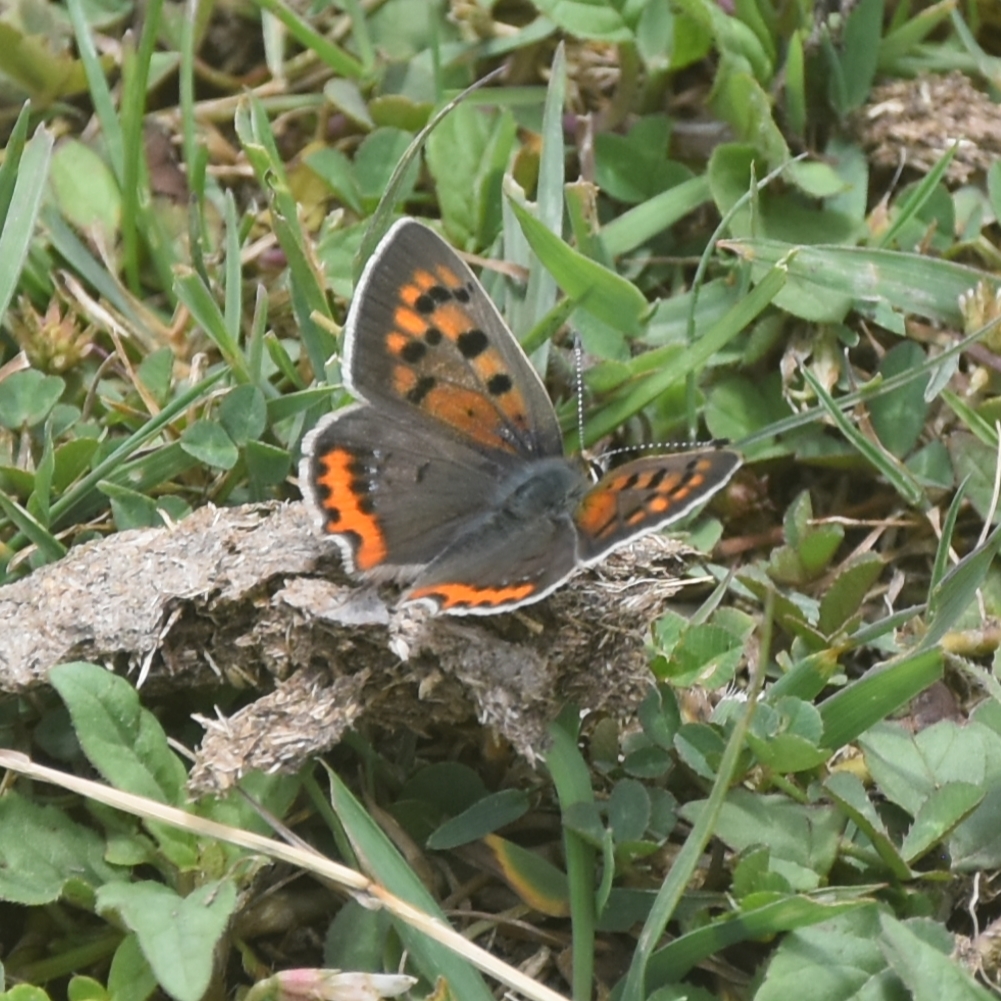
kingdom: Animalia
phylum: Arthropoda
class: Insecta
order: Lepidoptera
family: Lycaenidae
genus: Lycaena
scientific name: Lycaena phlaeas
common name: Small copper
